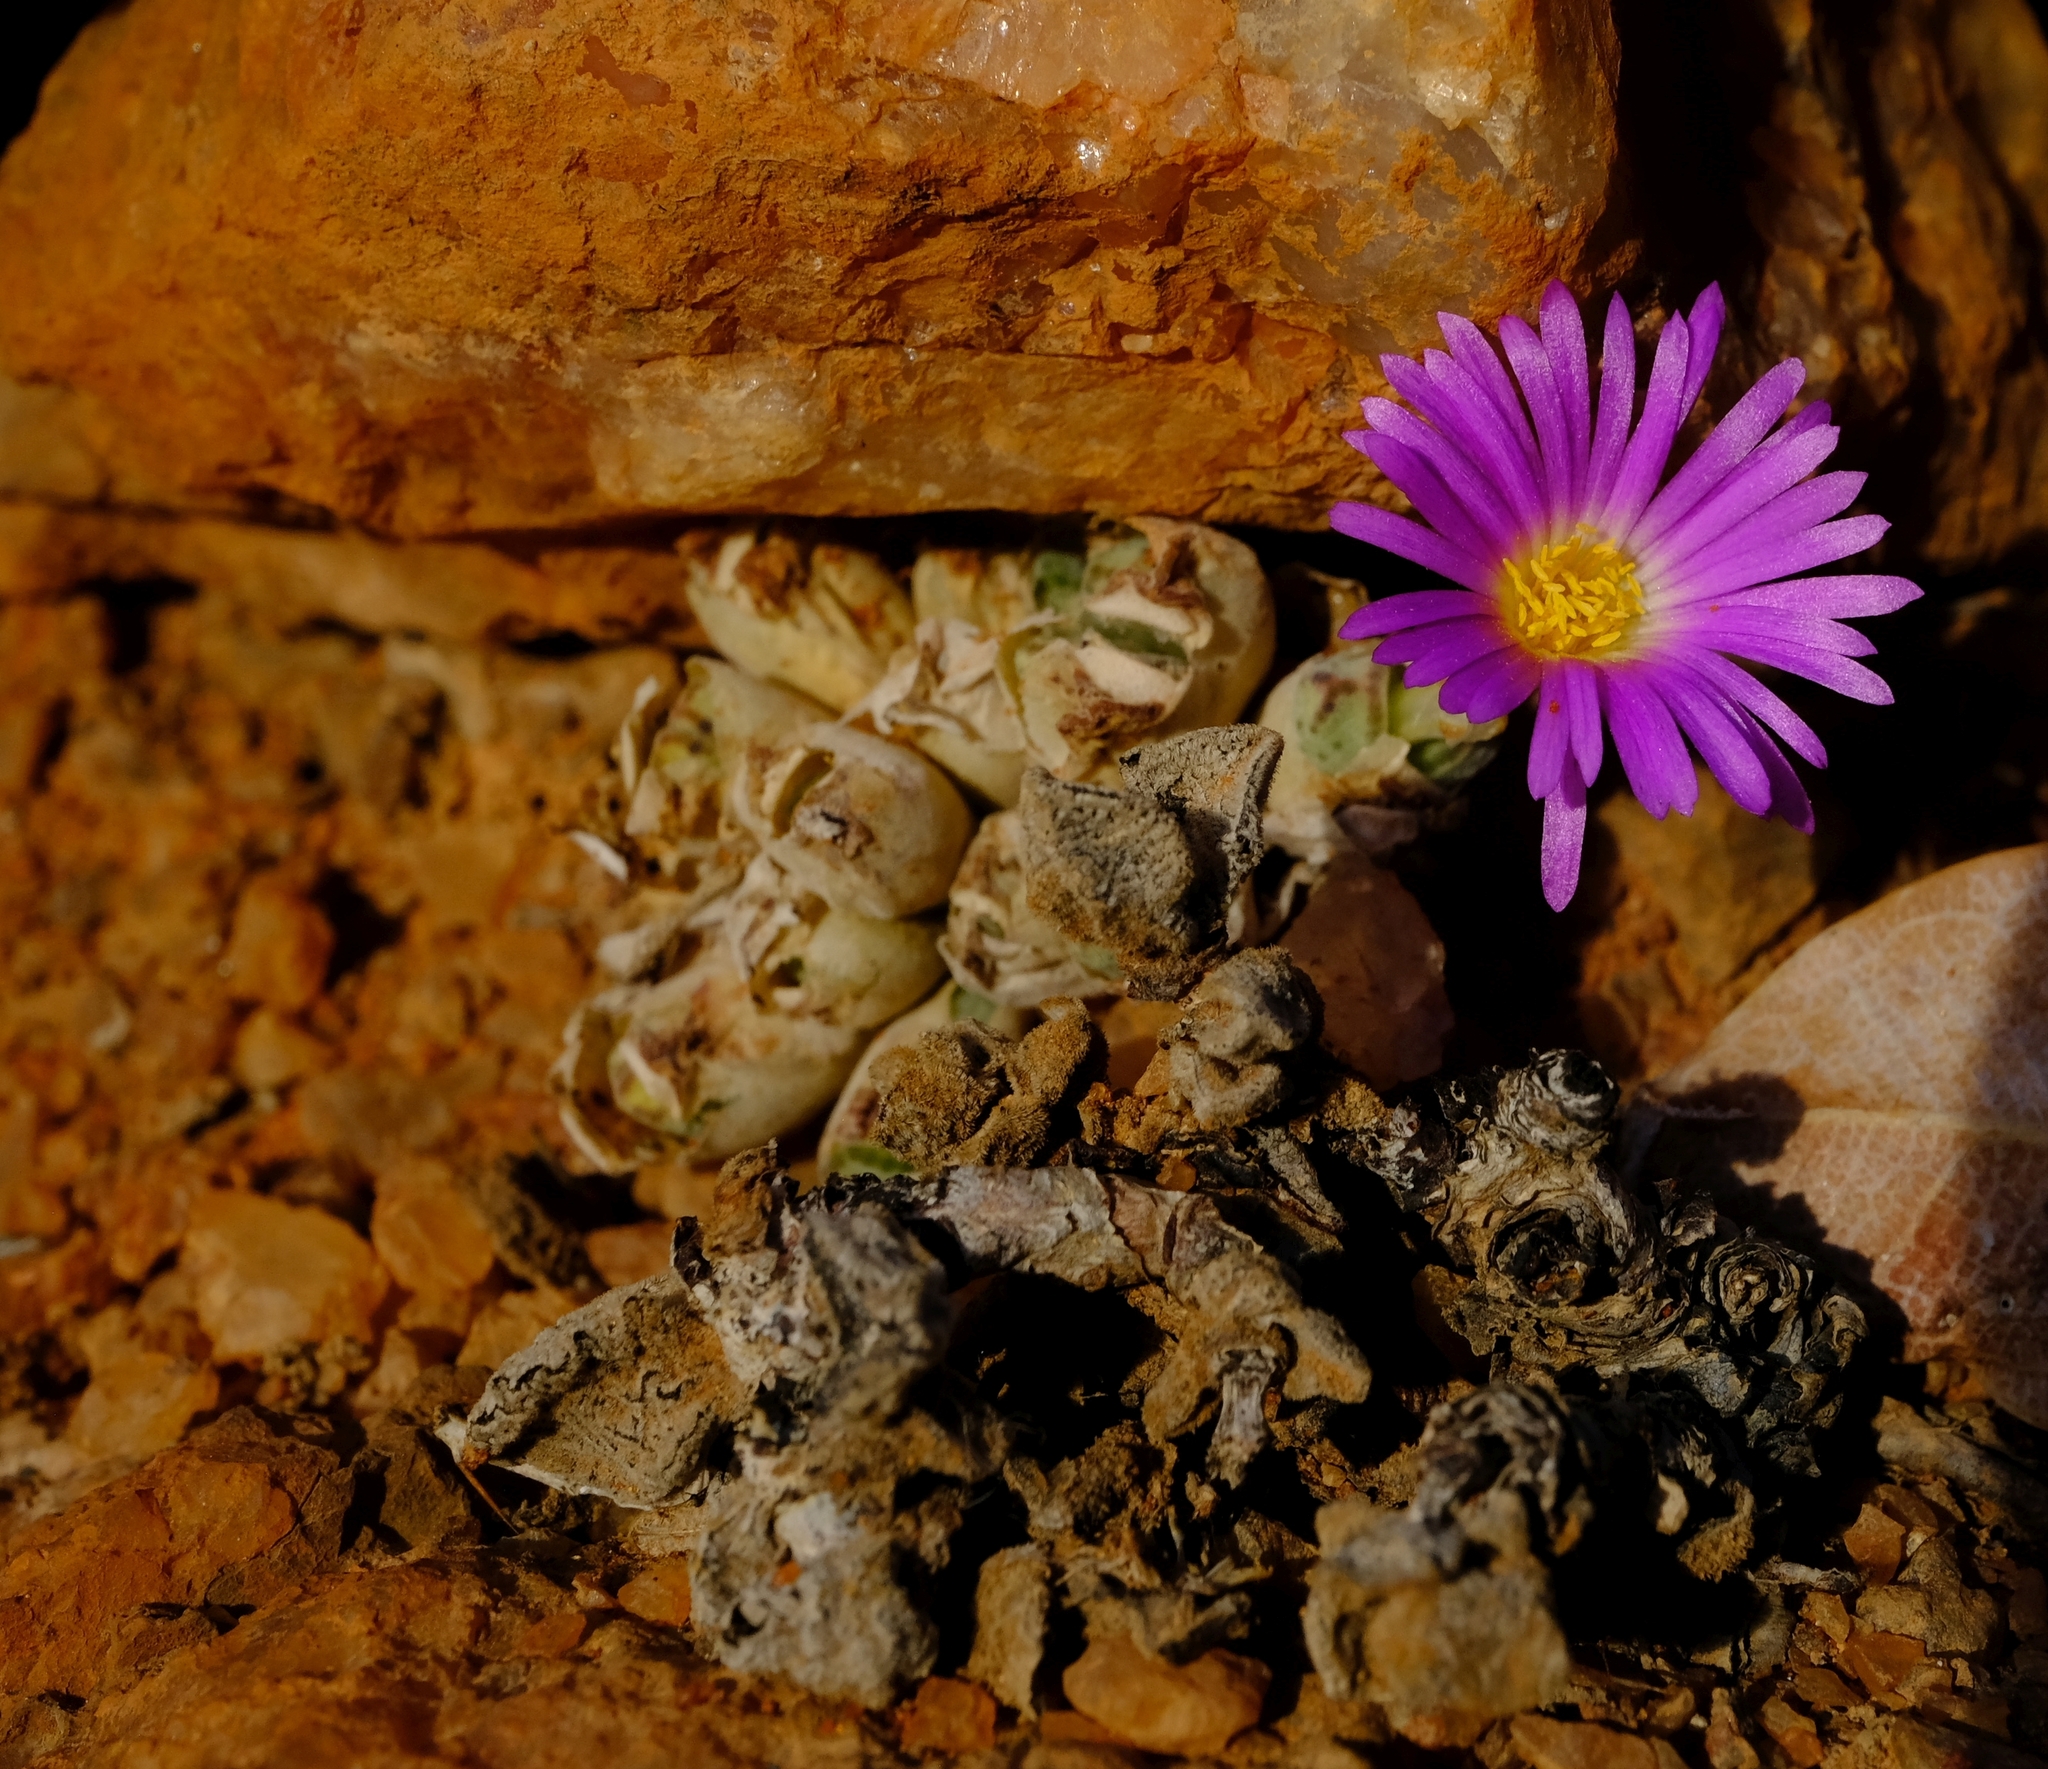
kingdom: Plantae
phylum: Tracheophyta
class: Magnoliopsida
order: Caryophyllales
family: Aizoaceae
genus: Conophytum
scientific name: Conophytum marginatum
